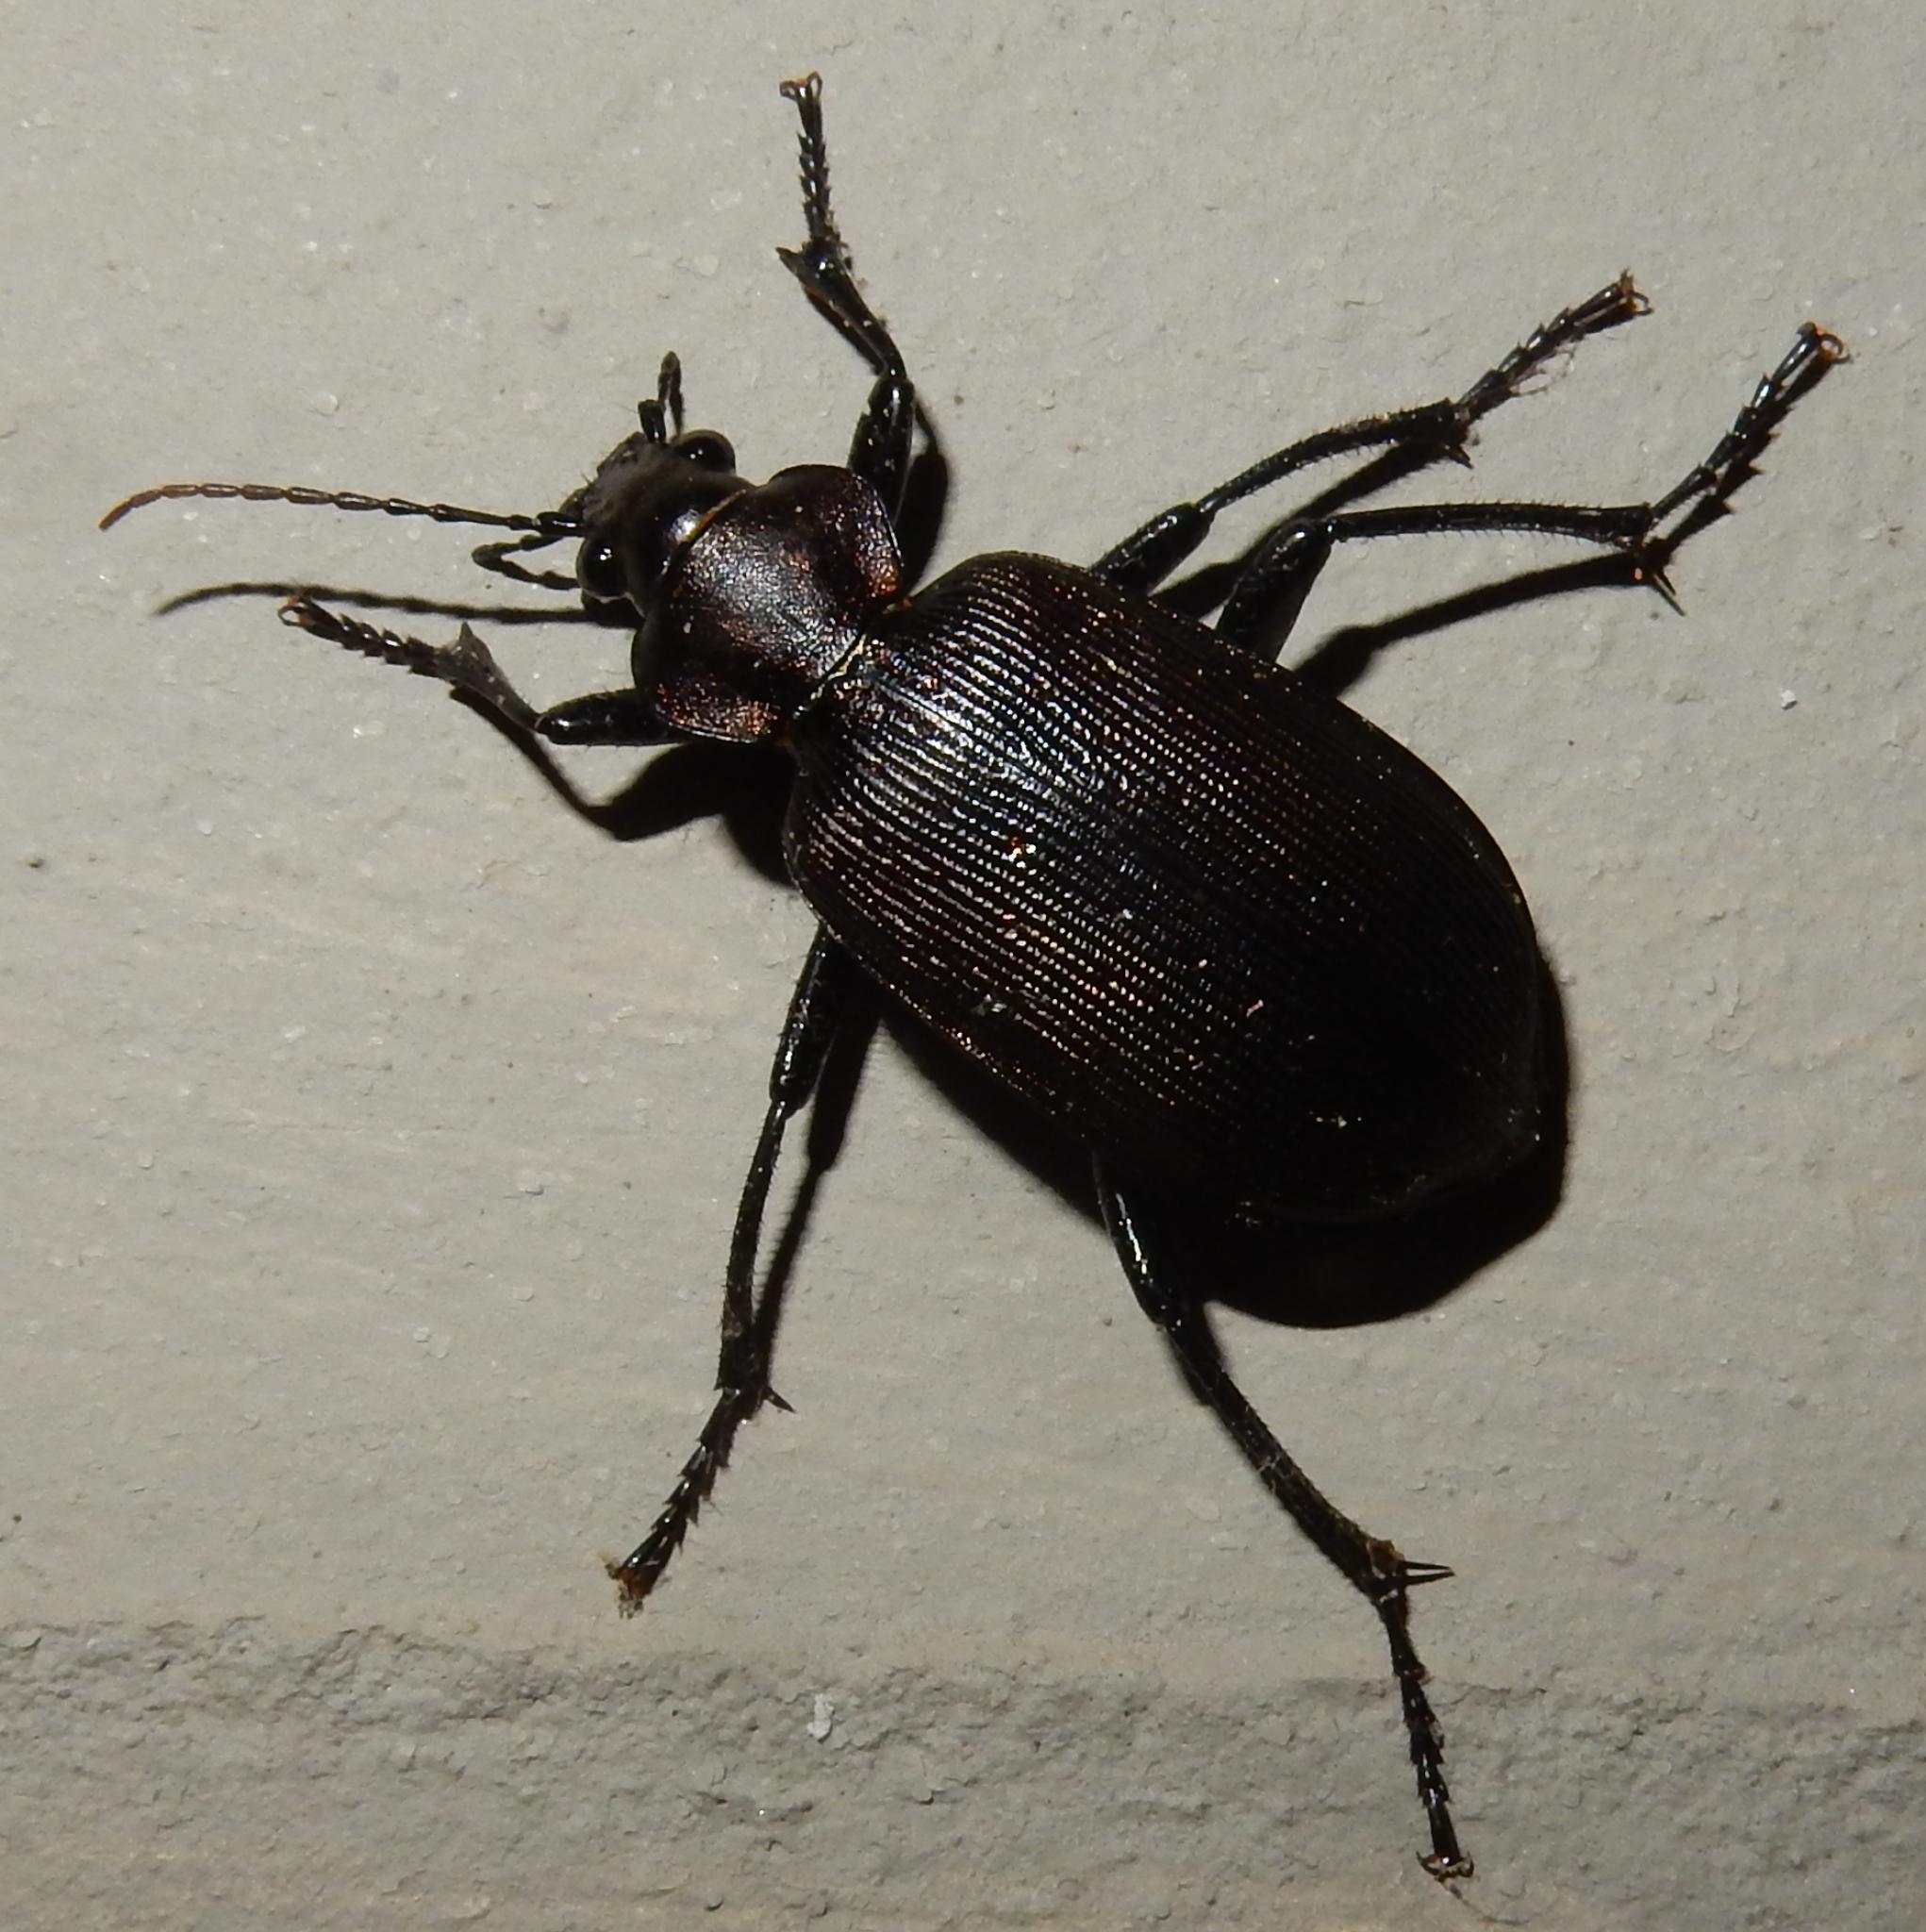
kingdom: Animalia
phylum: Arthropoda
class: Insecta
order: Coleoptera
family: Carabidae
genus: Calosoma
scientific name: Calosoma chlorostictum
